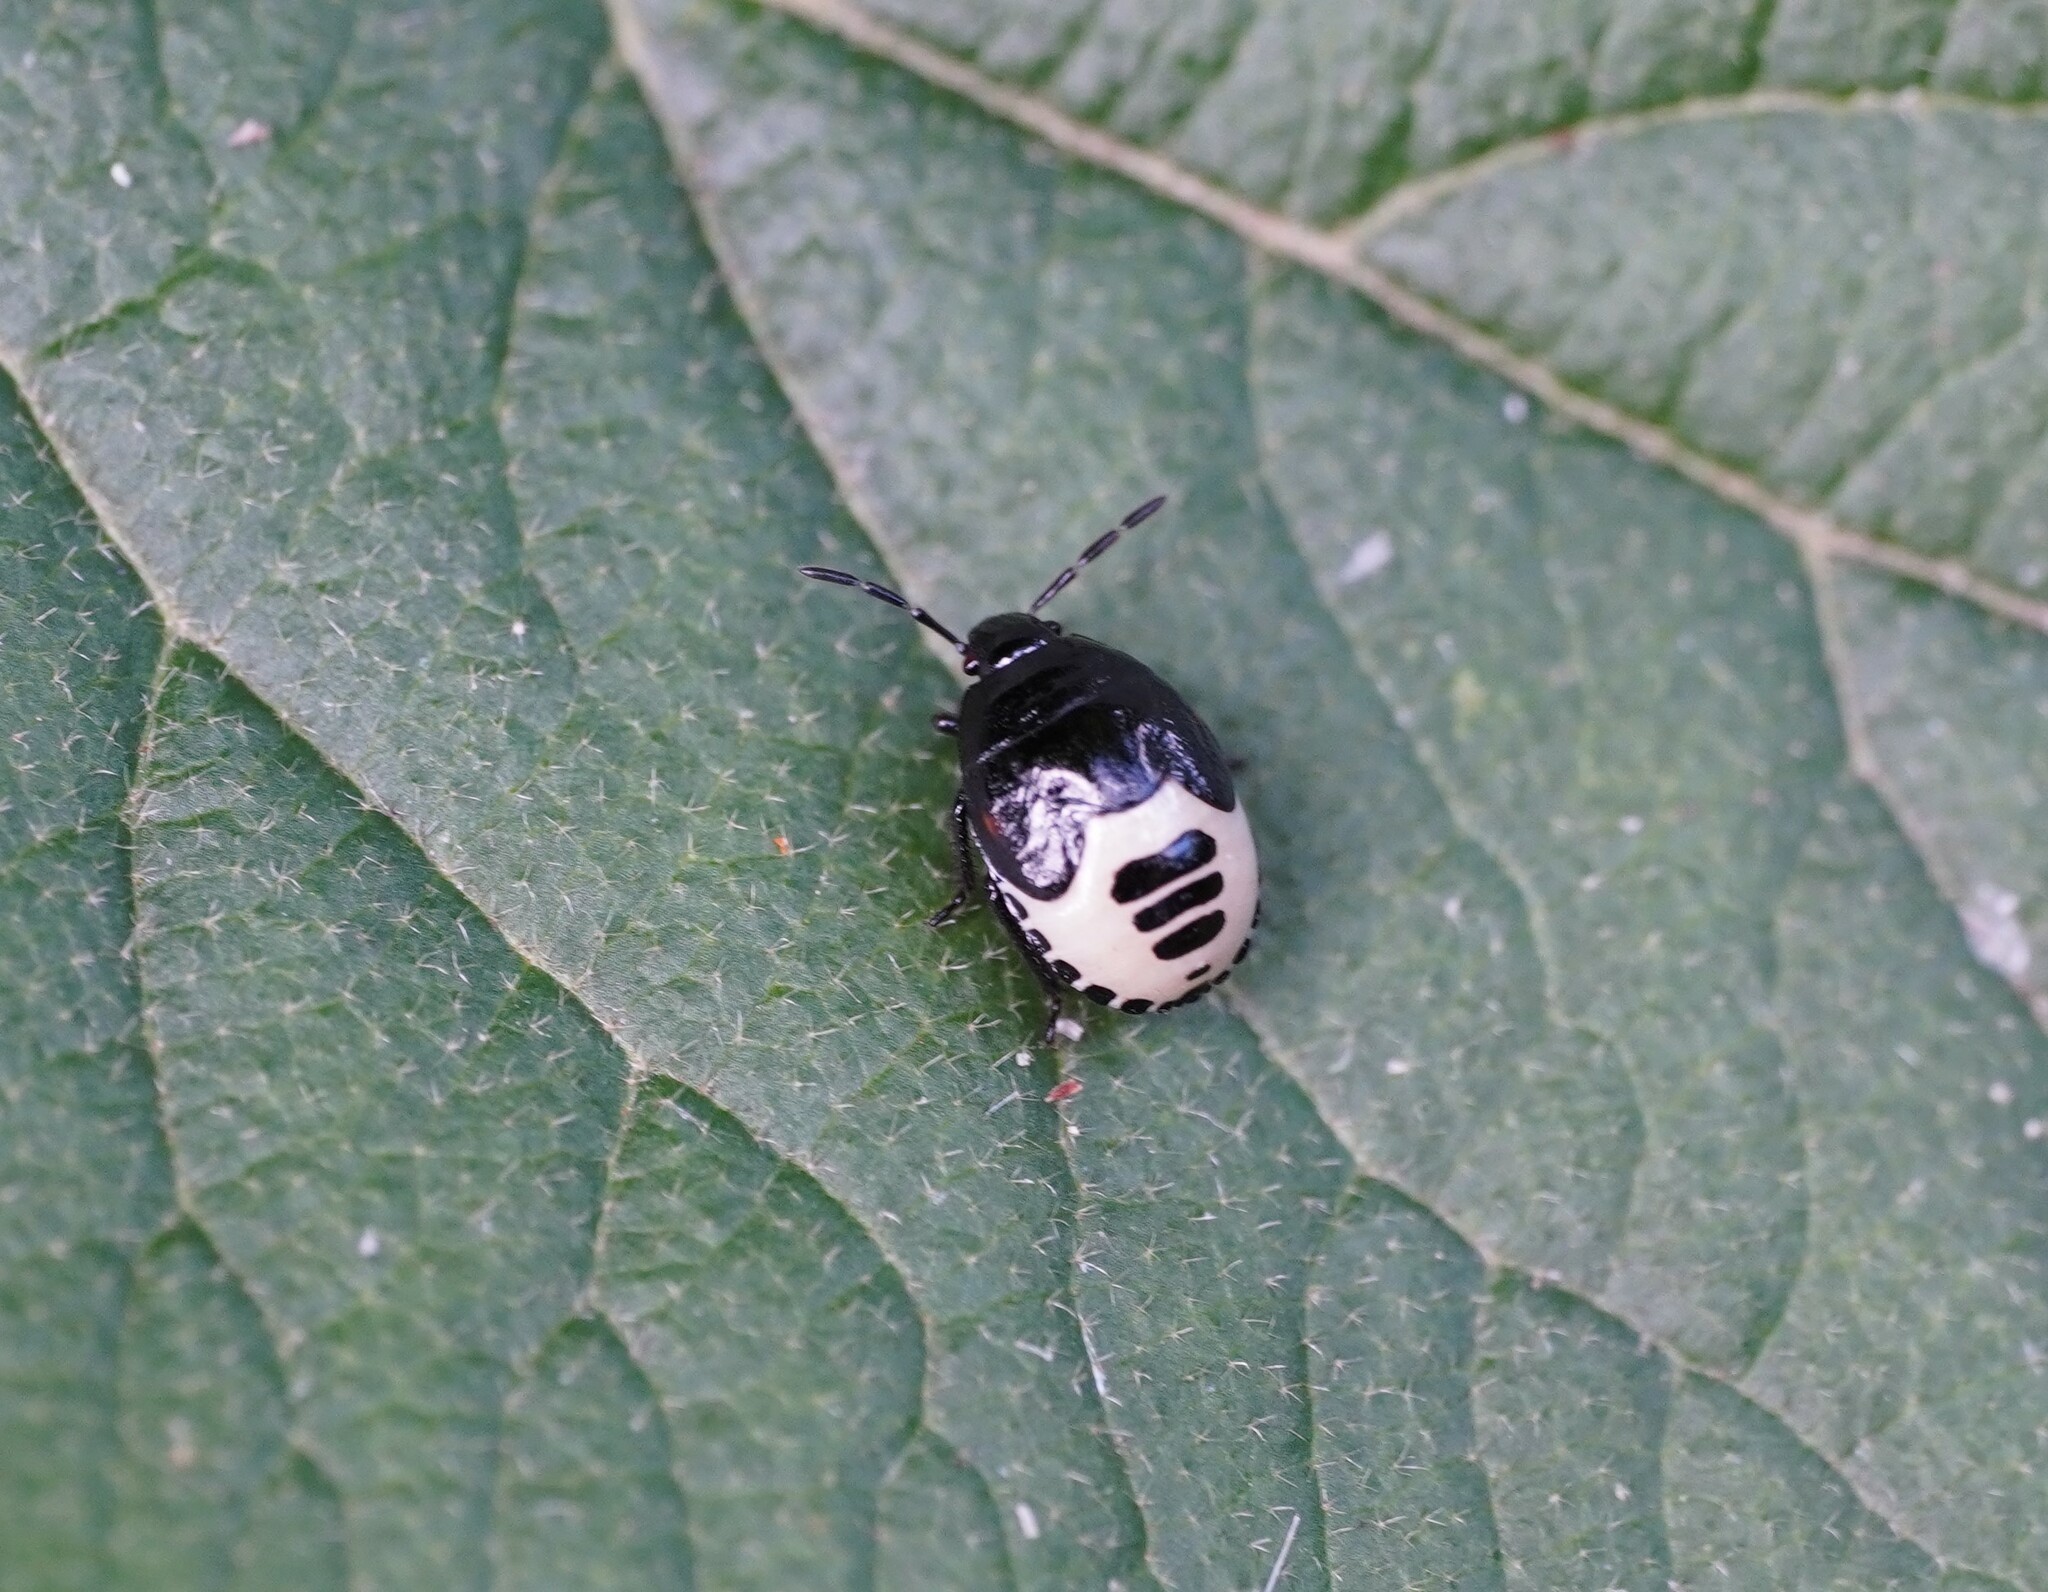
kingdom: Animalia
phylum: Arthropoda
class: Insecta
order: Hemiptera
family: Cydnidae
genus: Tritomegas
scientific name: Tritomegas sexmaculatus
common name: Rambur's pied shieldbug
